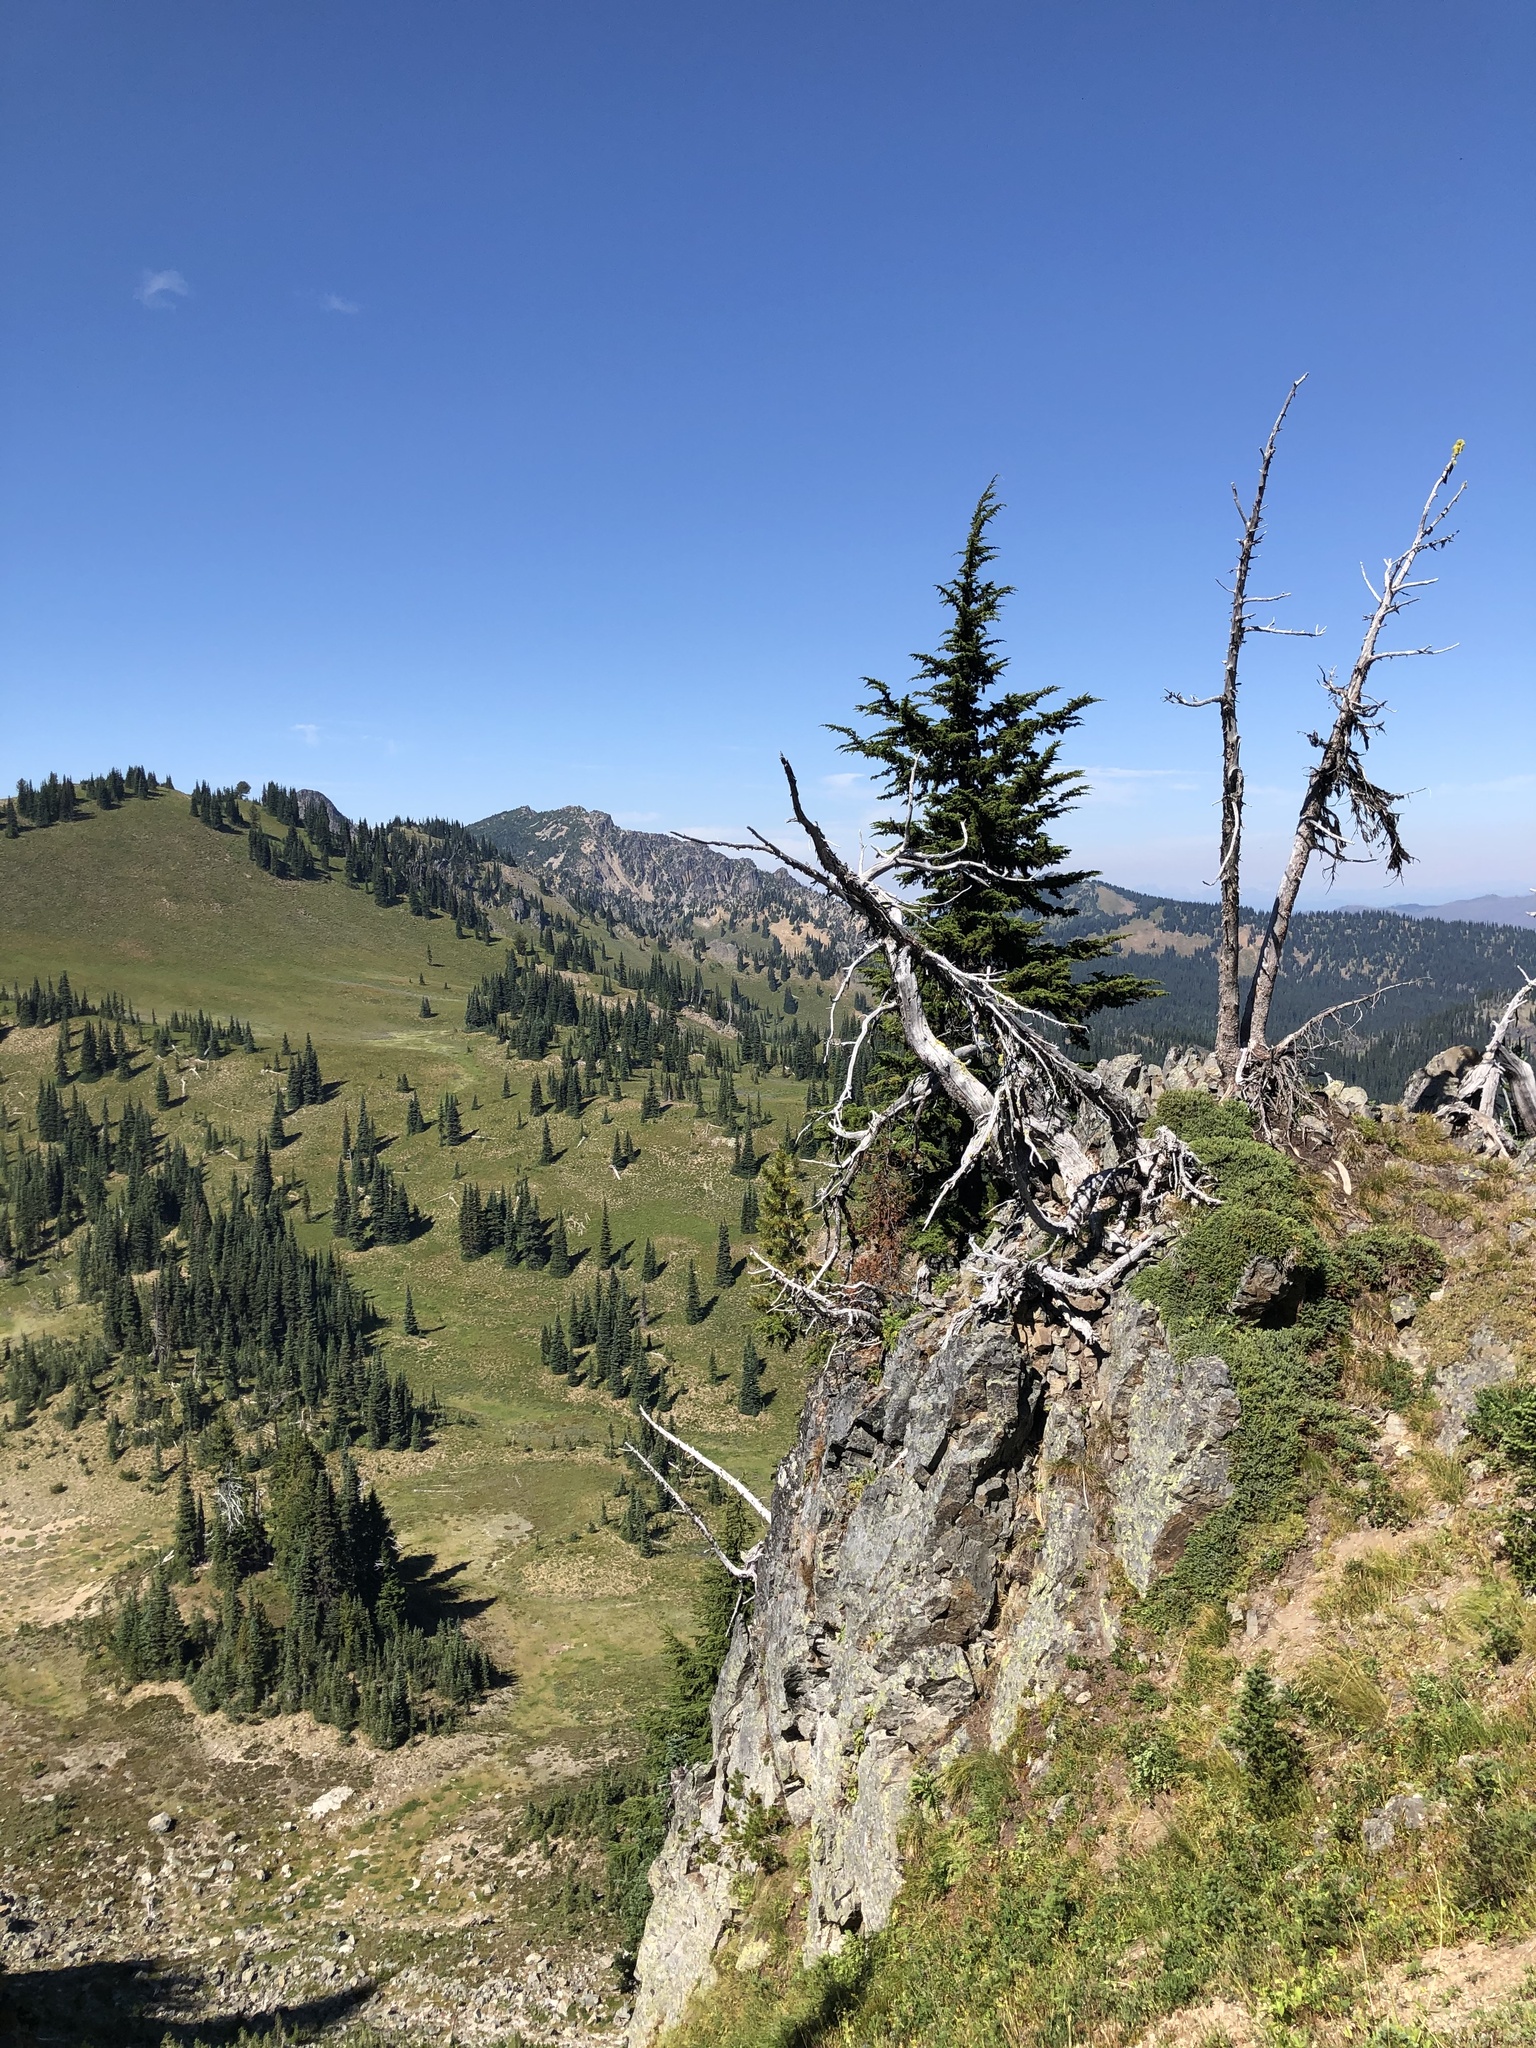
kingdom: Plantae
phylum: Tracheophyta
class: Pinopsida
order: Pinales
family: Pinaceae
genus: Tsuga
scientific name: Tsuga mertensiana
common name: Mountain hemlock
